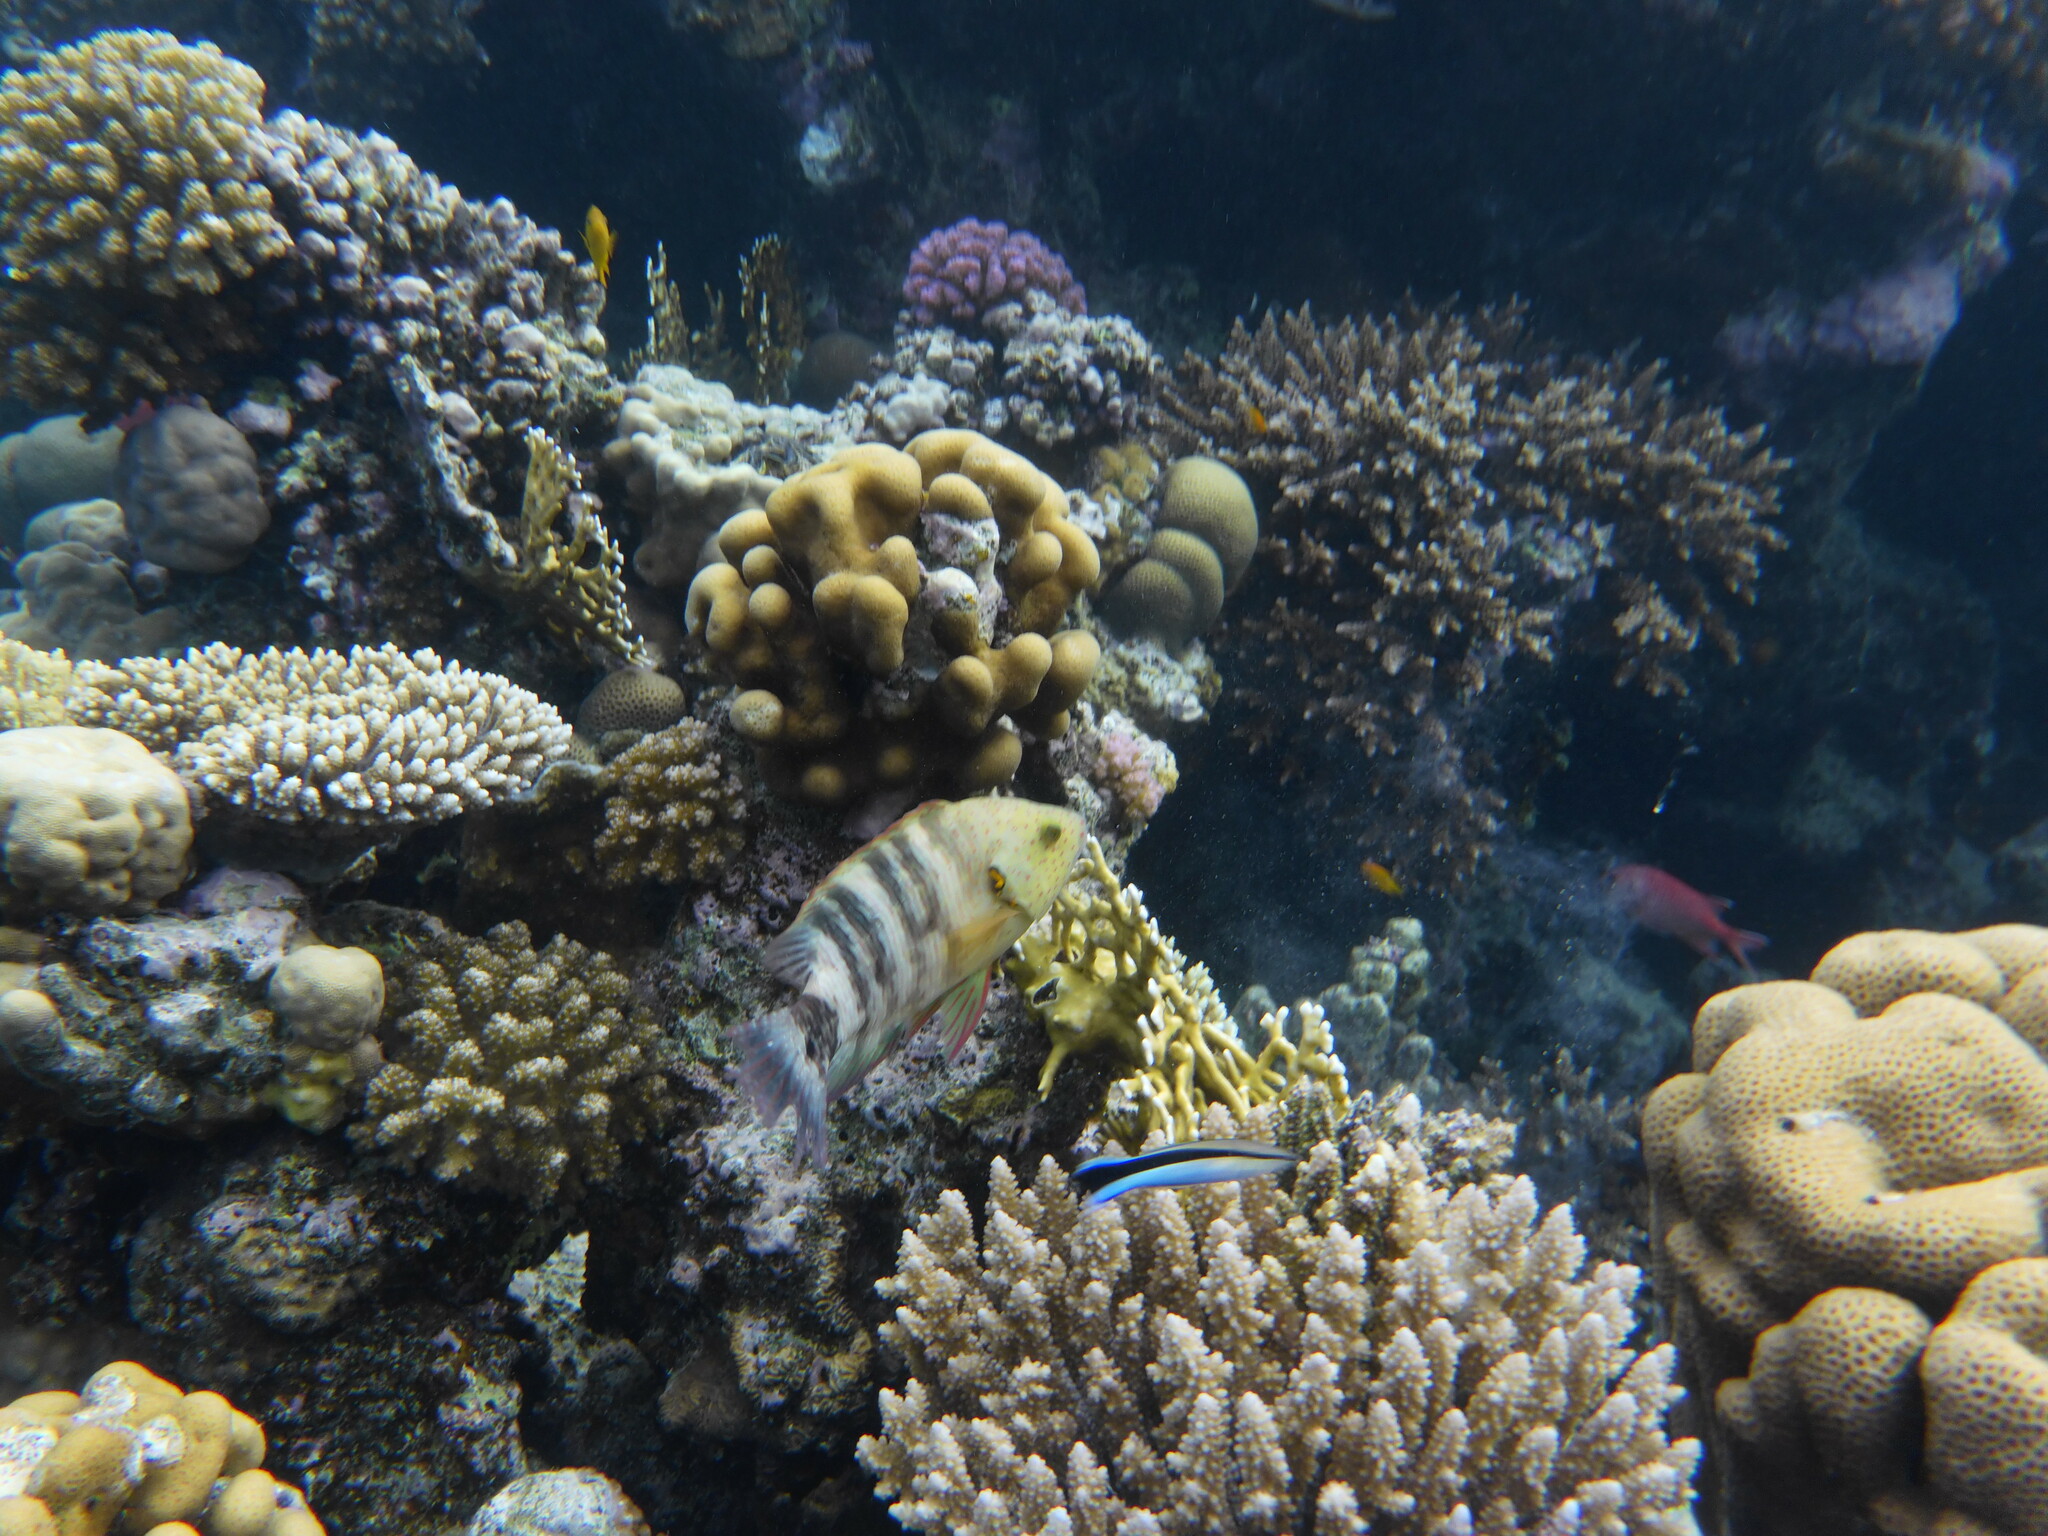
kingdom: Animalia
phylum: Chordata
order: Perciformes
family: Labridae
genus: Cheilinus
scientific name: Cheilinus lunulatus
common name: Broomtail wrasse
